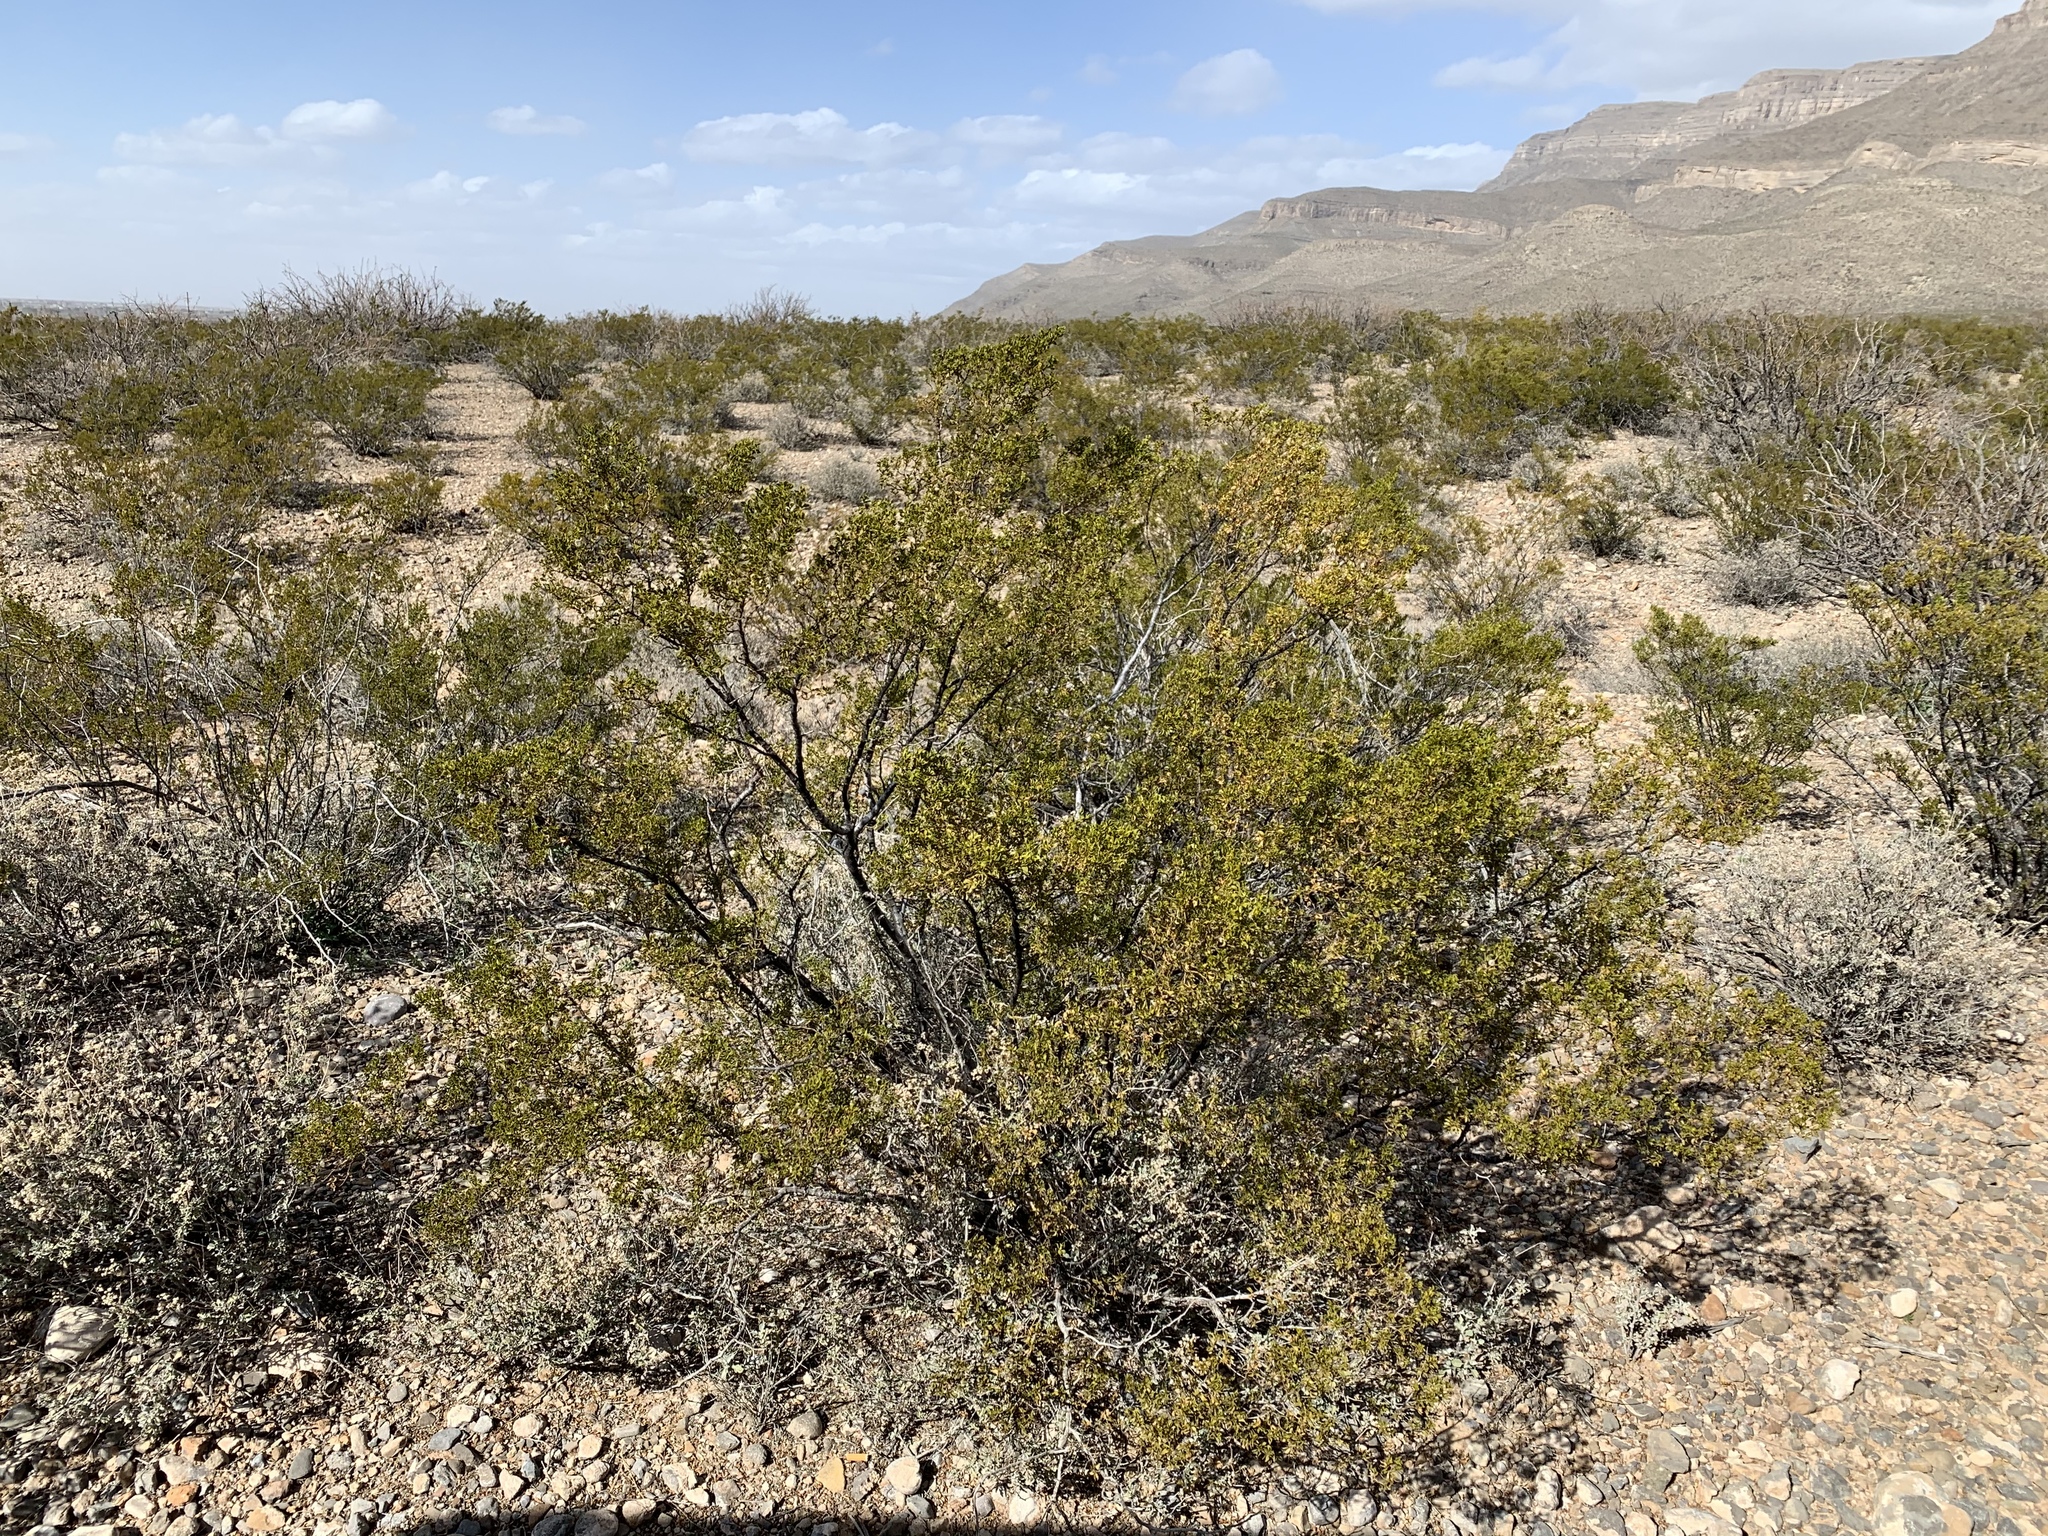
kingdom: Plantae
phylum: Tracheophyta
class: Magnoliopsida
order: Zygophyllales
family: Zygophyllaceae
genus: Larrea
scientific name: Larrea tridentata
